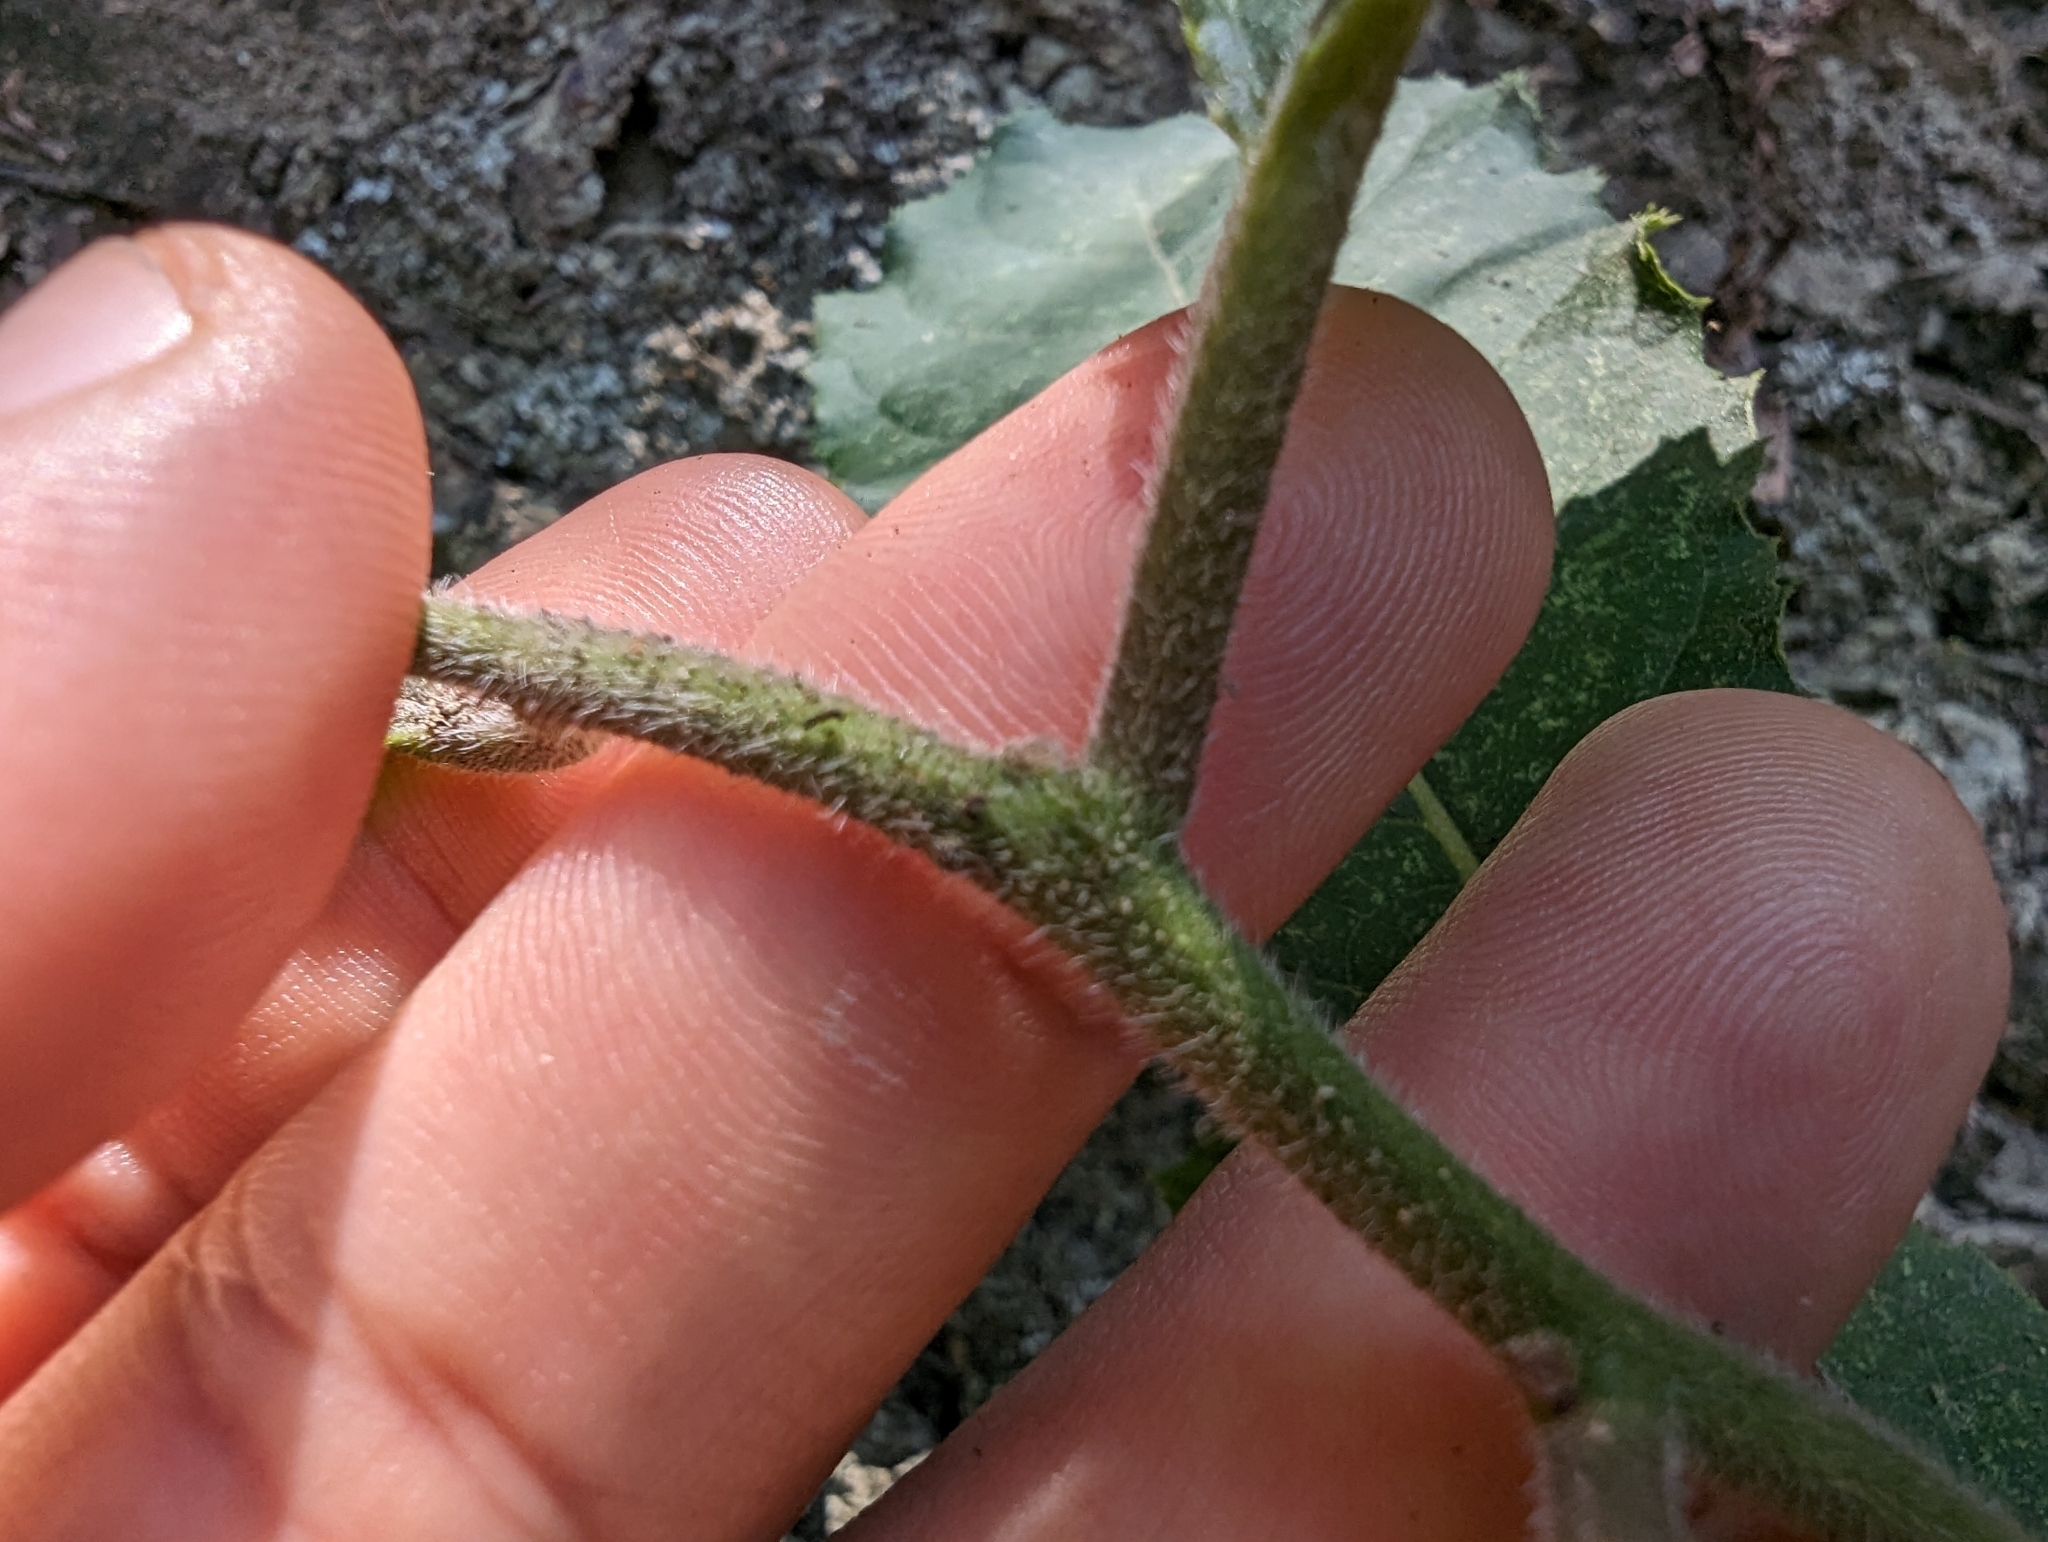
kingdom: Plantae
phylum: Tracheophyta
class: Magnoliopsida
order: Boraginales
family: Ehretiaceae
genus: Ehretia
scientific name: Ehretia dicksonii
